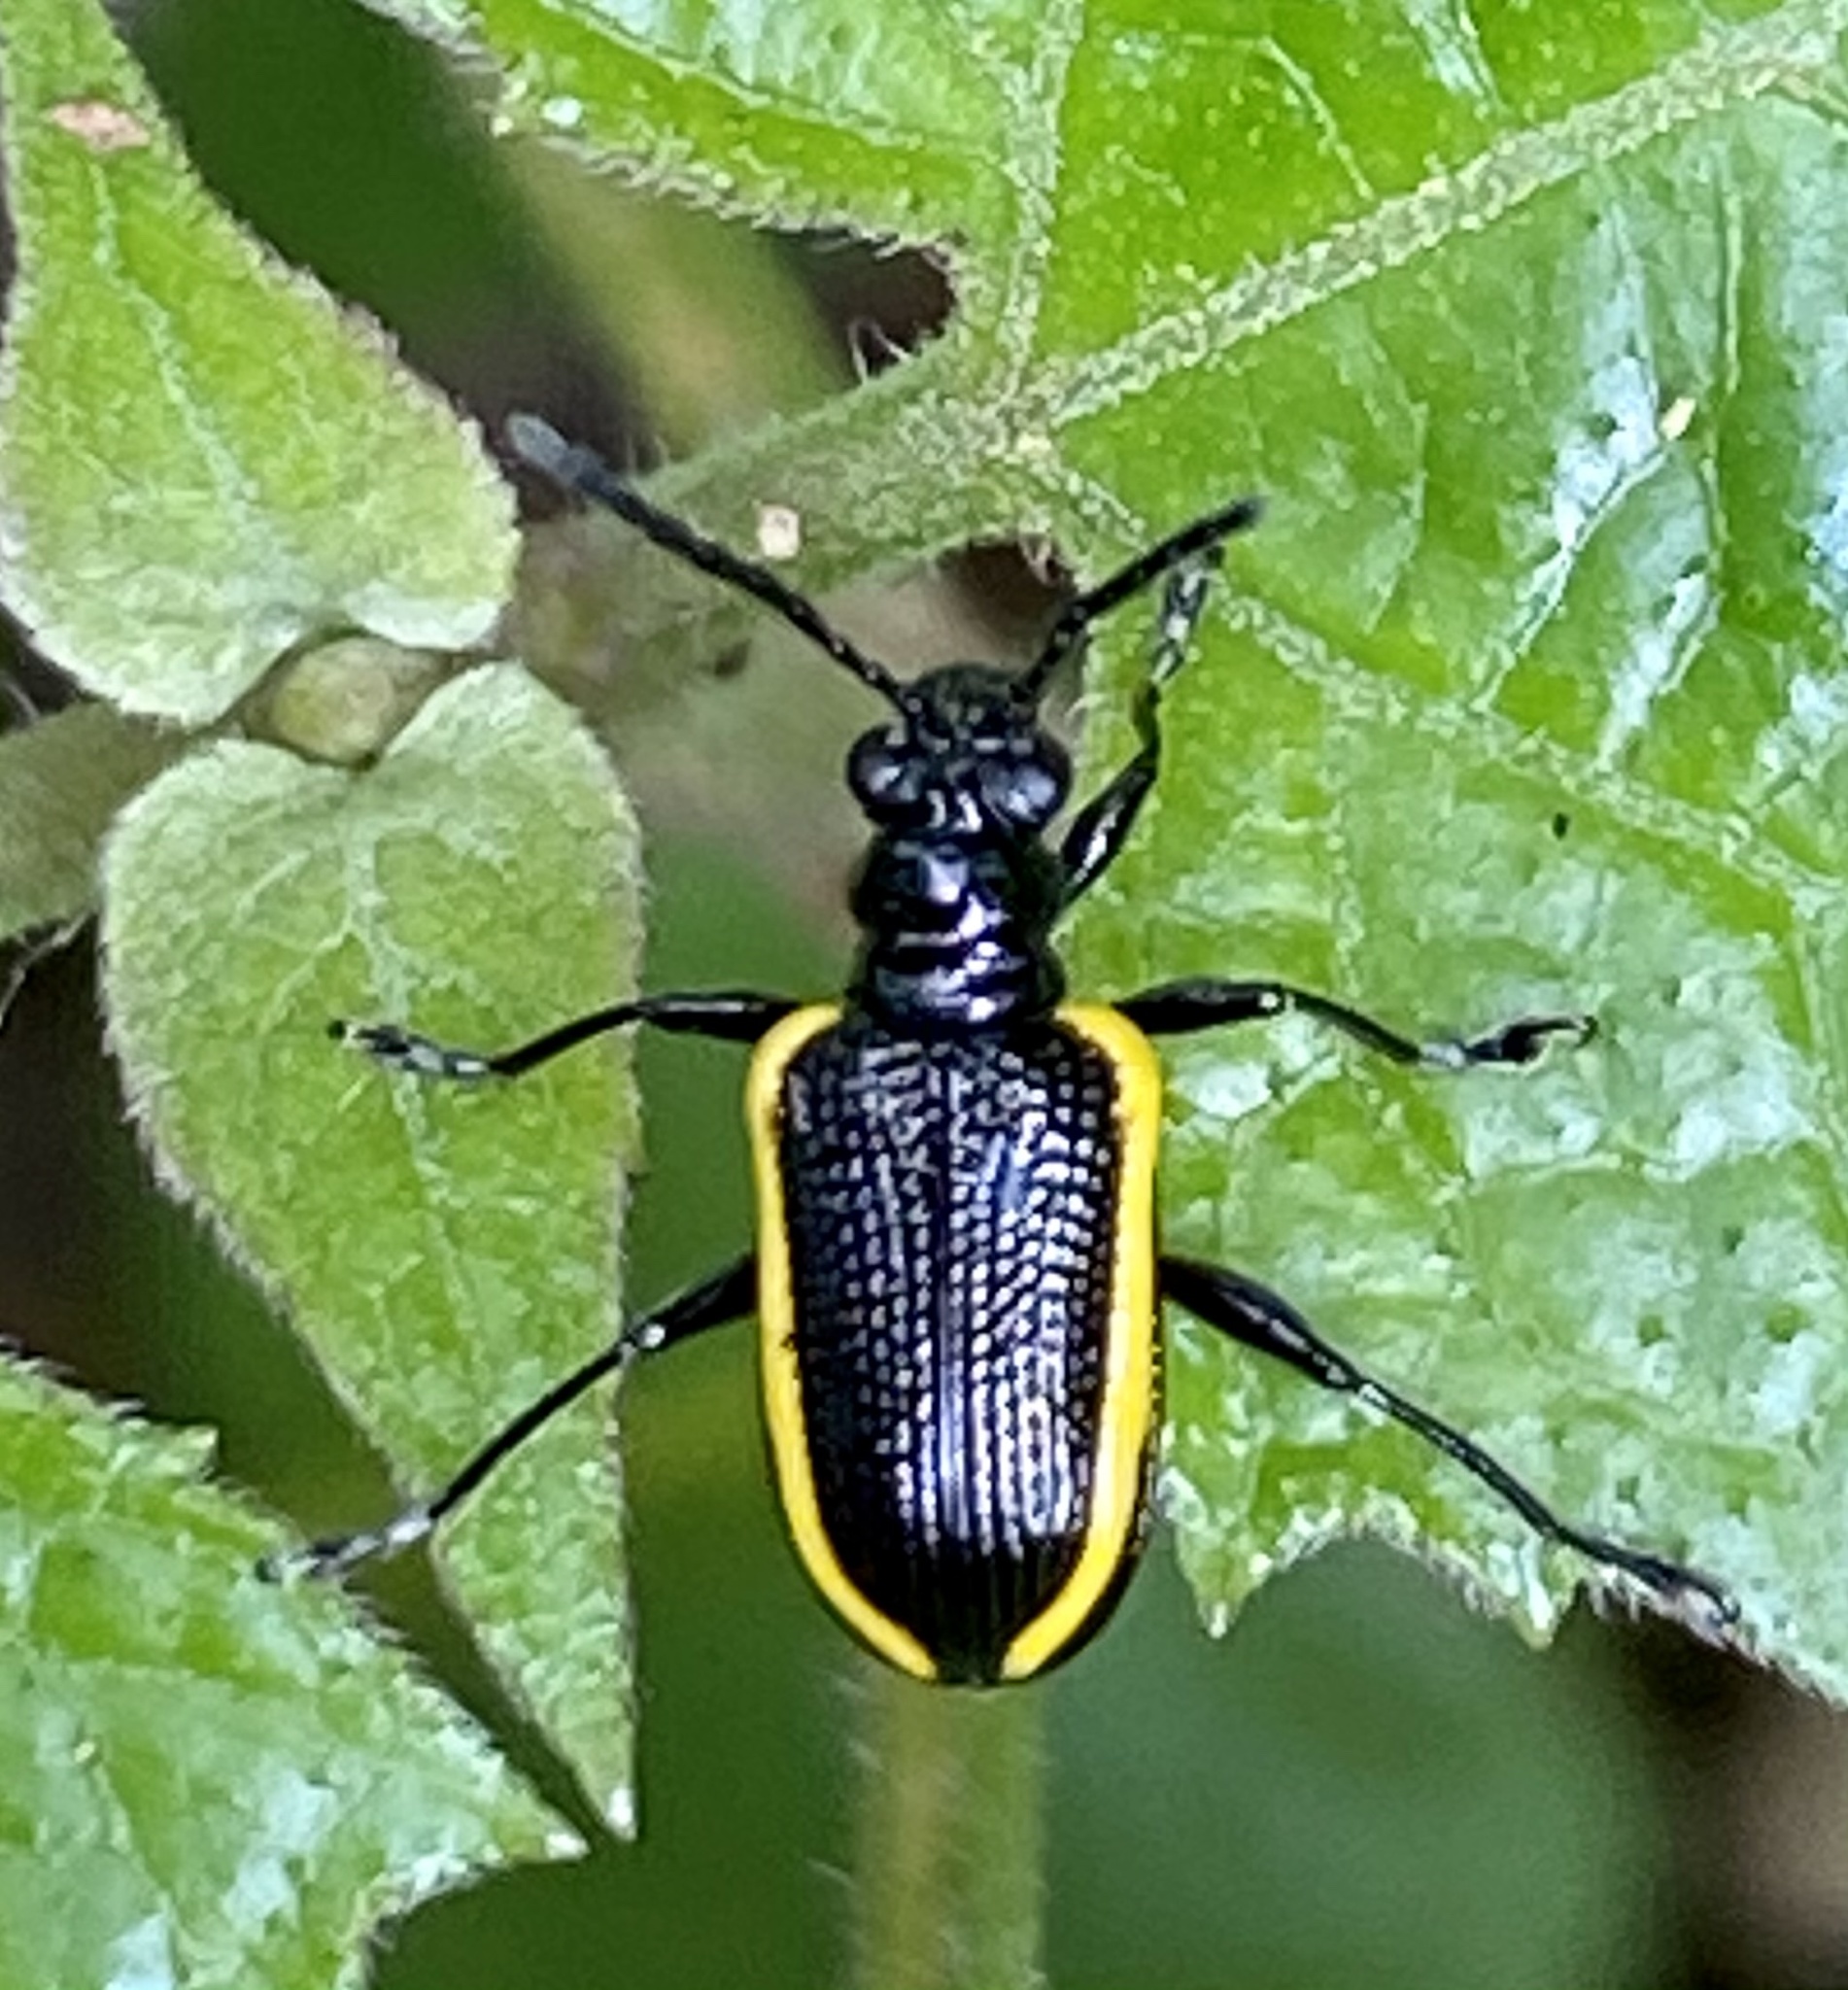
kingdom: Animalia
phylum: Arthropoda
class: Insecta
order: Coleoptera
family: Chrysomelidae
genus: Neolema
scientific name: Neolema
